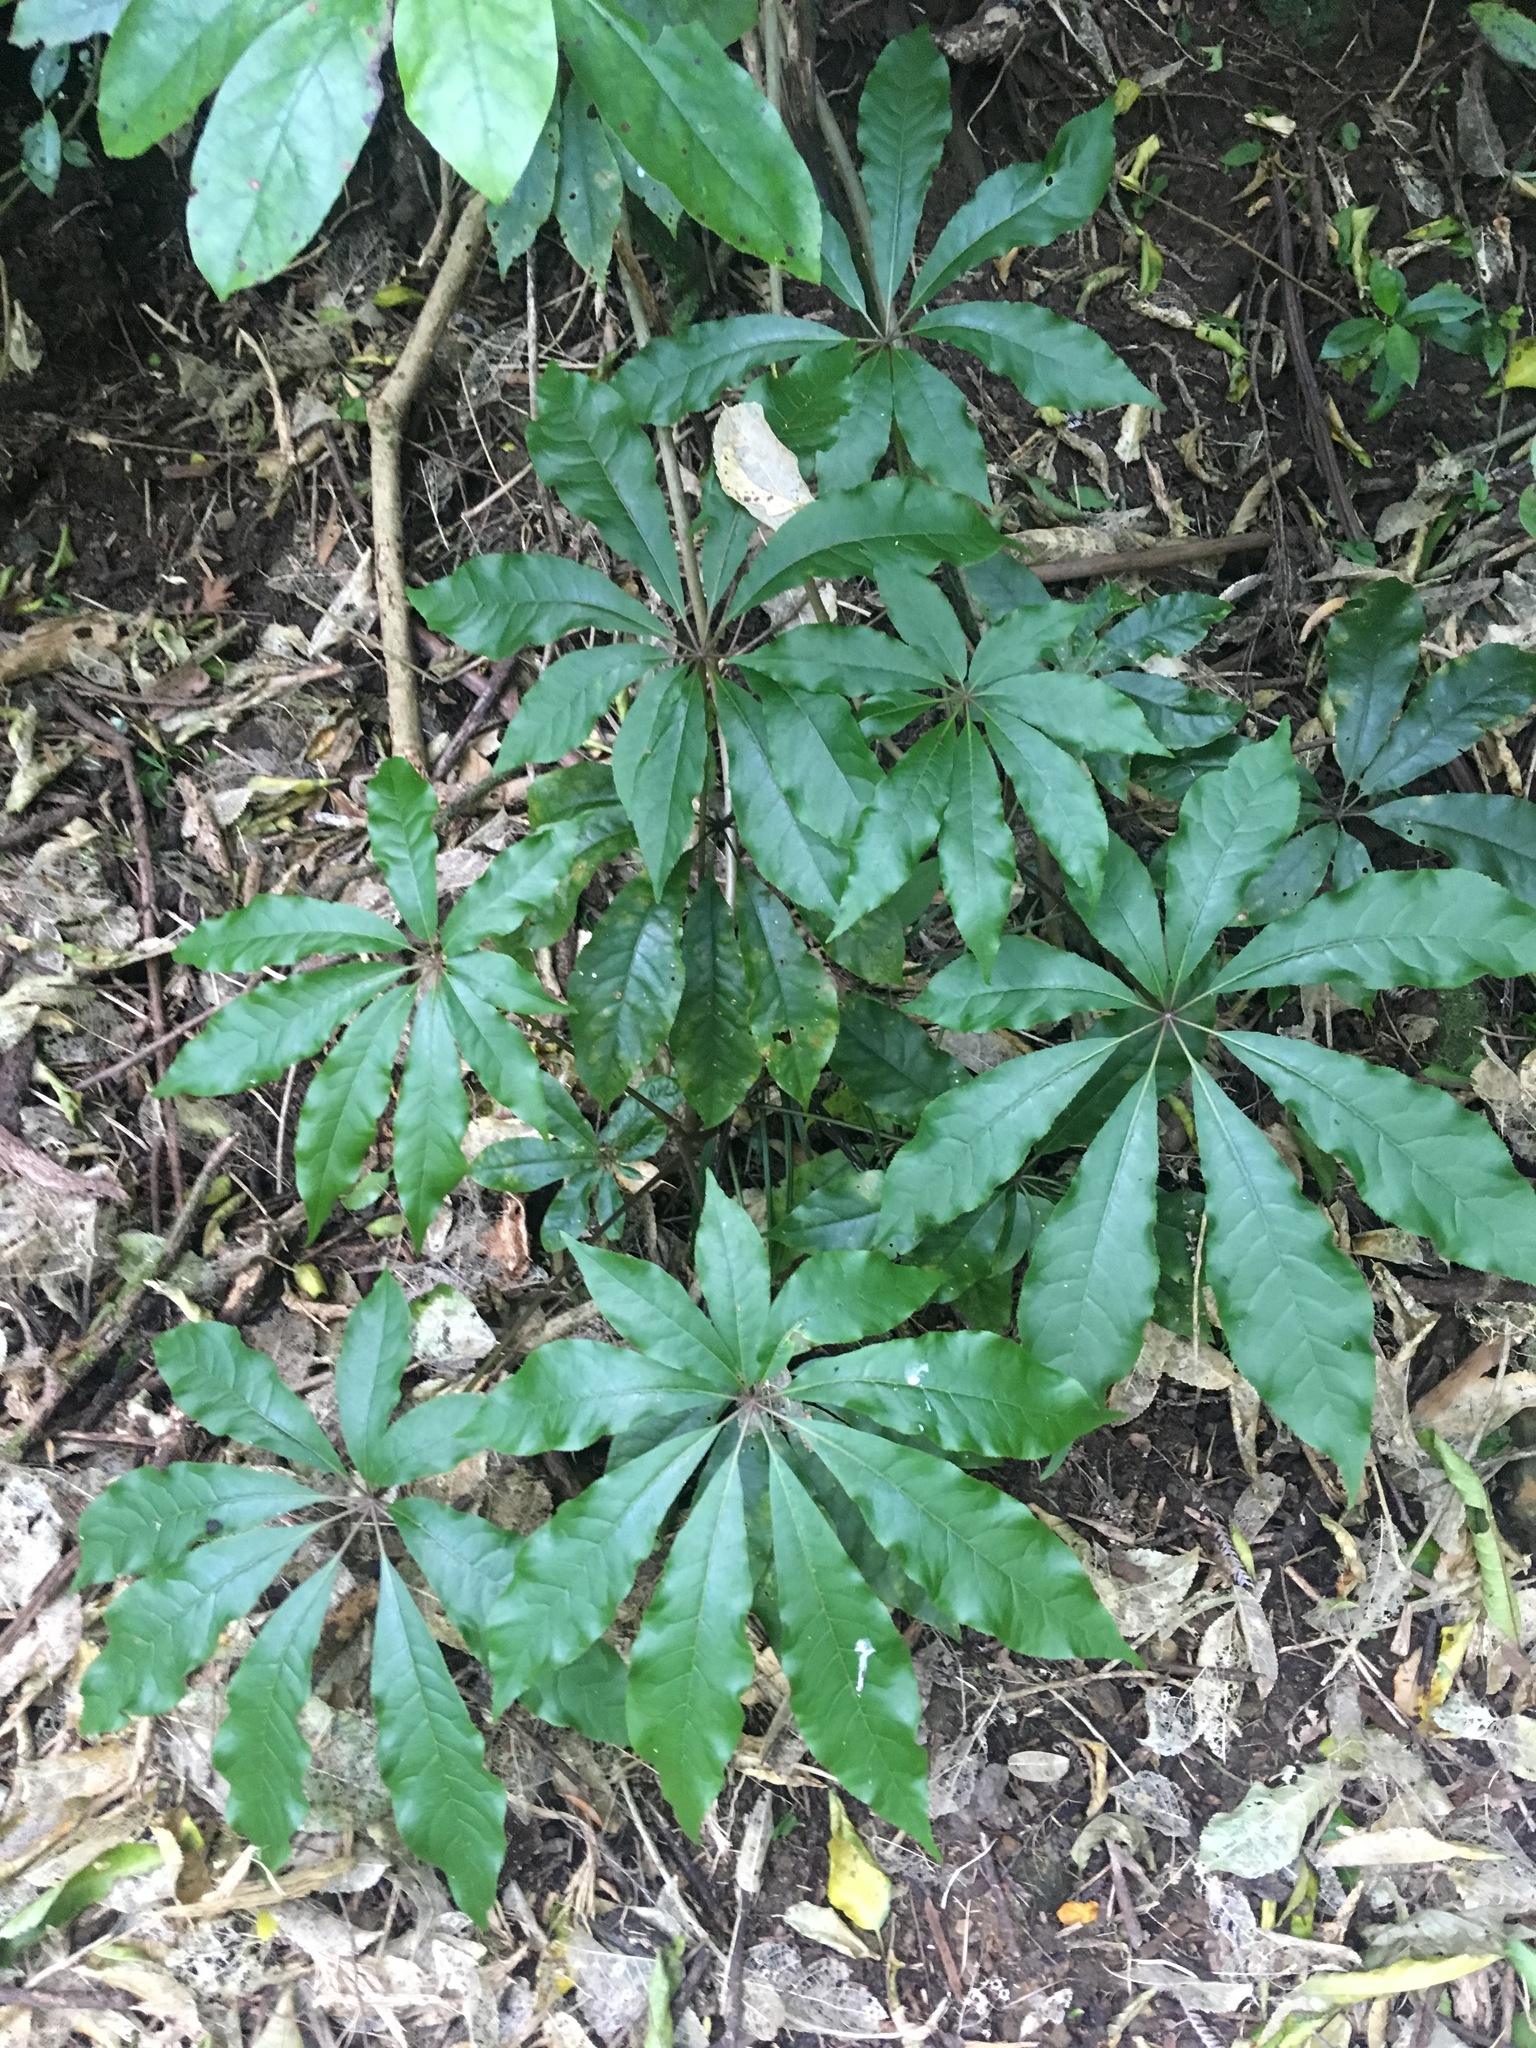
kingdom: Plantae
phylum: Tracheophyta
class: Magnoliopsida
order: Apiales
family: Araliaceae
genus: Schefflera
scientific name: Schefflera digitata
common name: Pate
